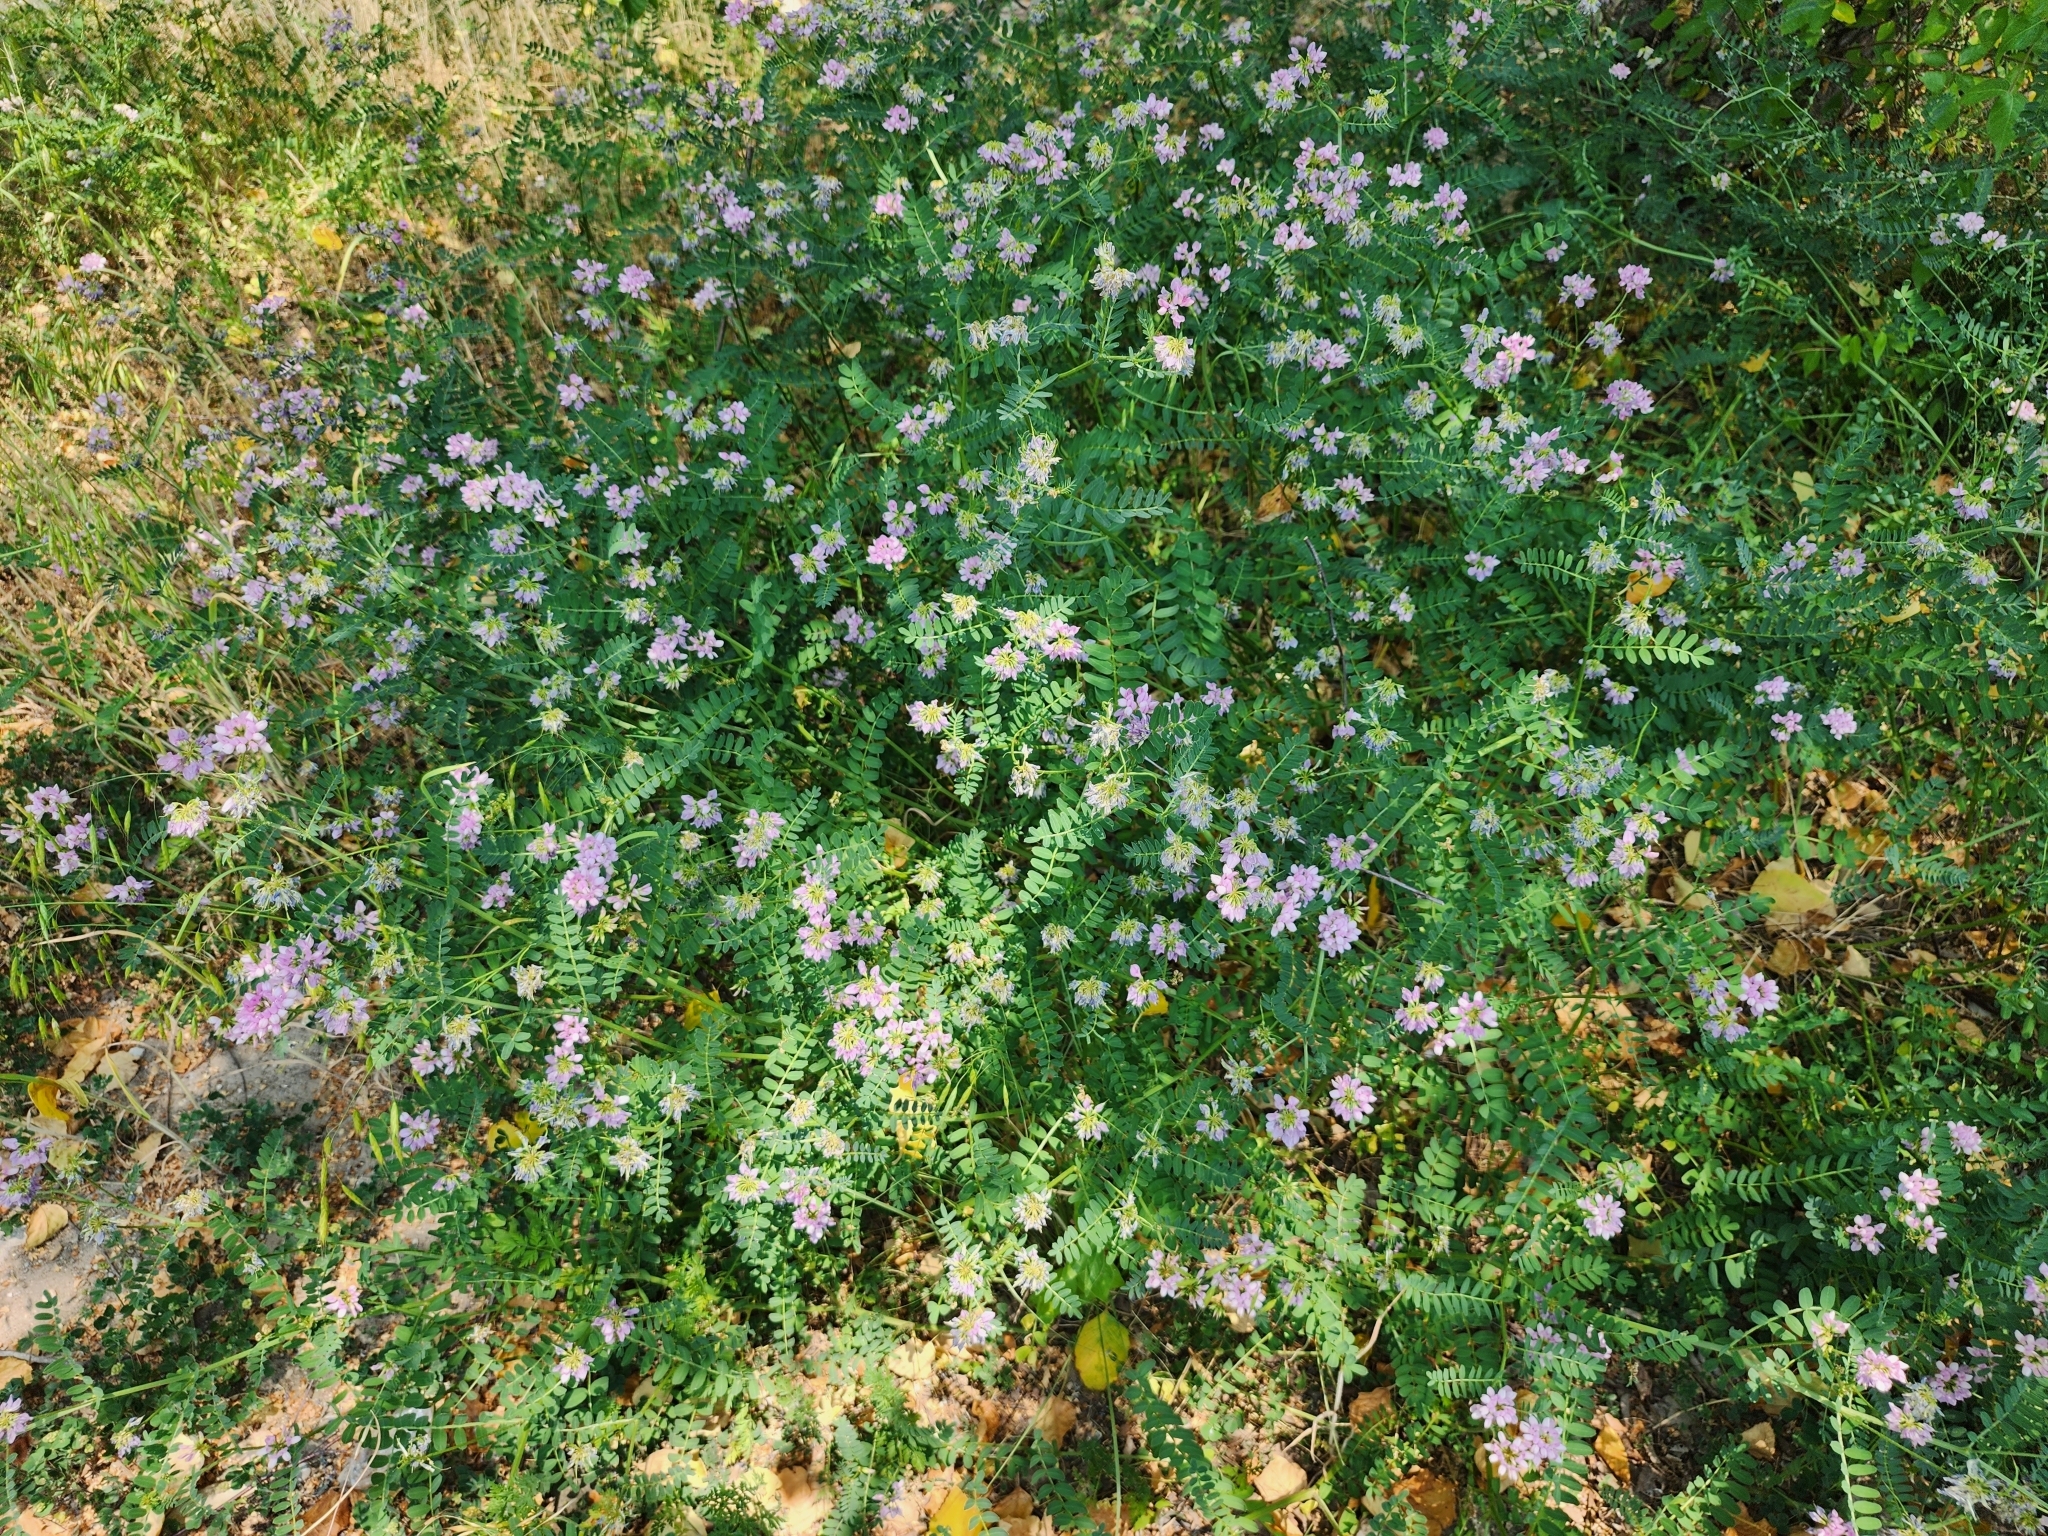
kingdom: Plantae
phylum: Tracheophyta
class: Magnoliopsida
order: Fabales
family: Fabaceae
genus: Coronilla
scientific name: Coronilla varia
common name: Crownvetch
